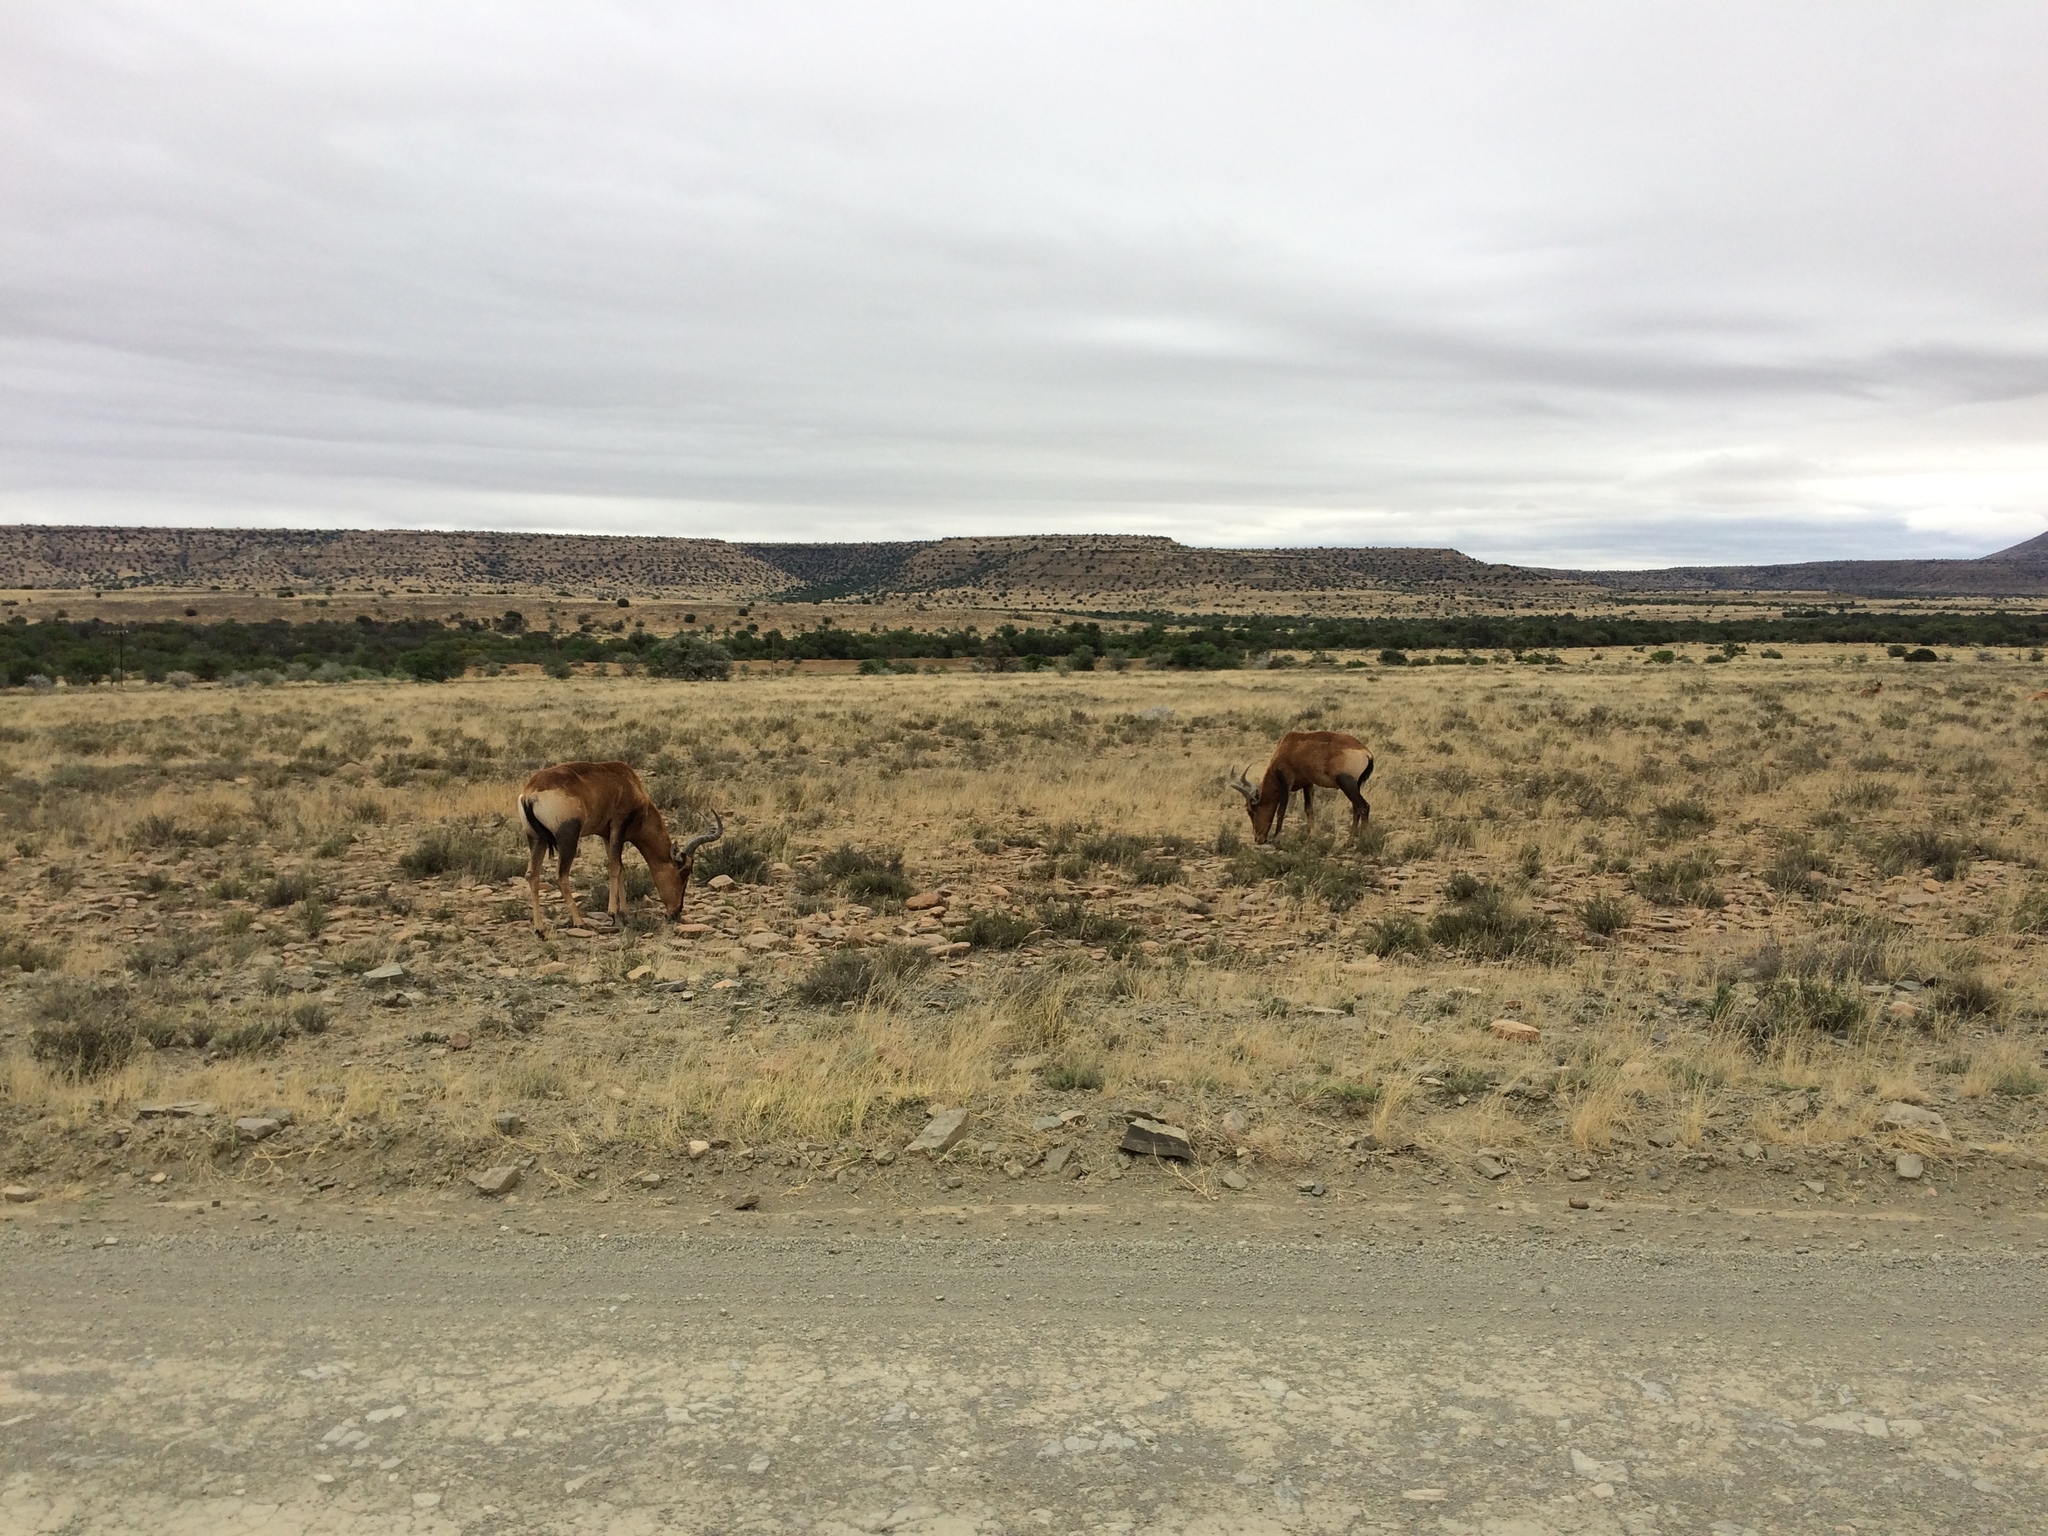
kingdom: Animalia
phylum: Chordata
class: Mammalia
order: Artiodactyla
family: Bovidae
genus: Alcelaphus
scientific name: Alcelaphus caama
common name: Red hartebeest
